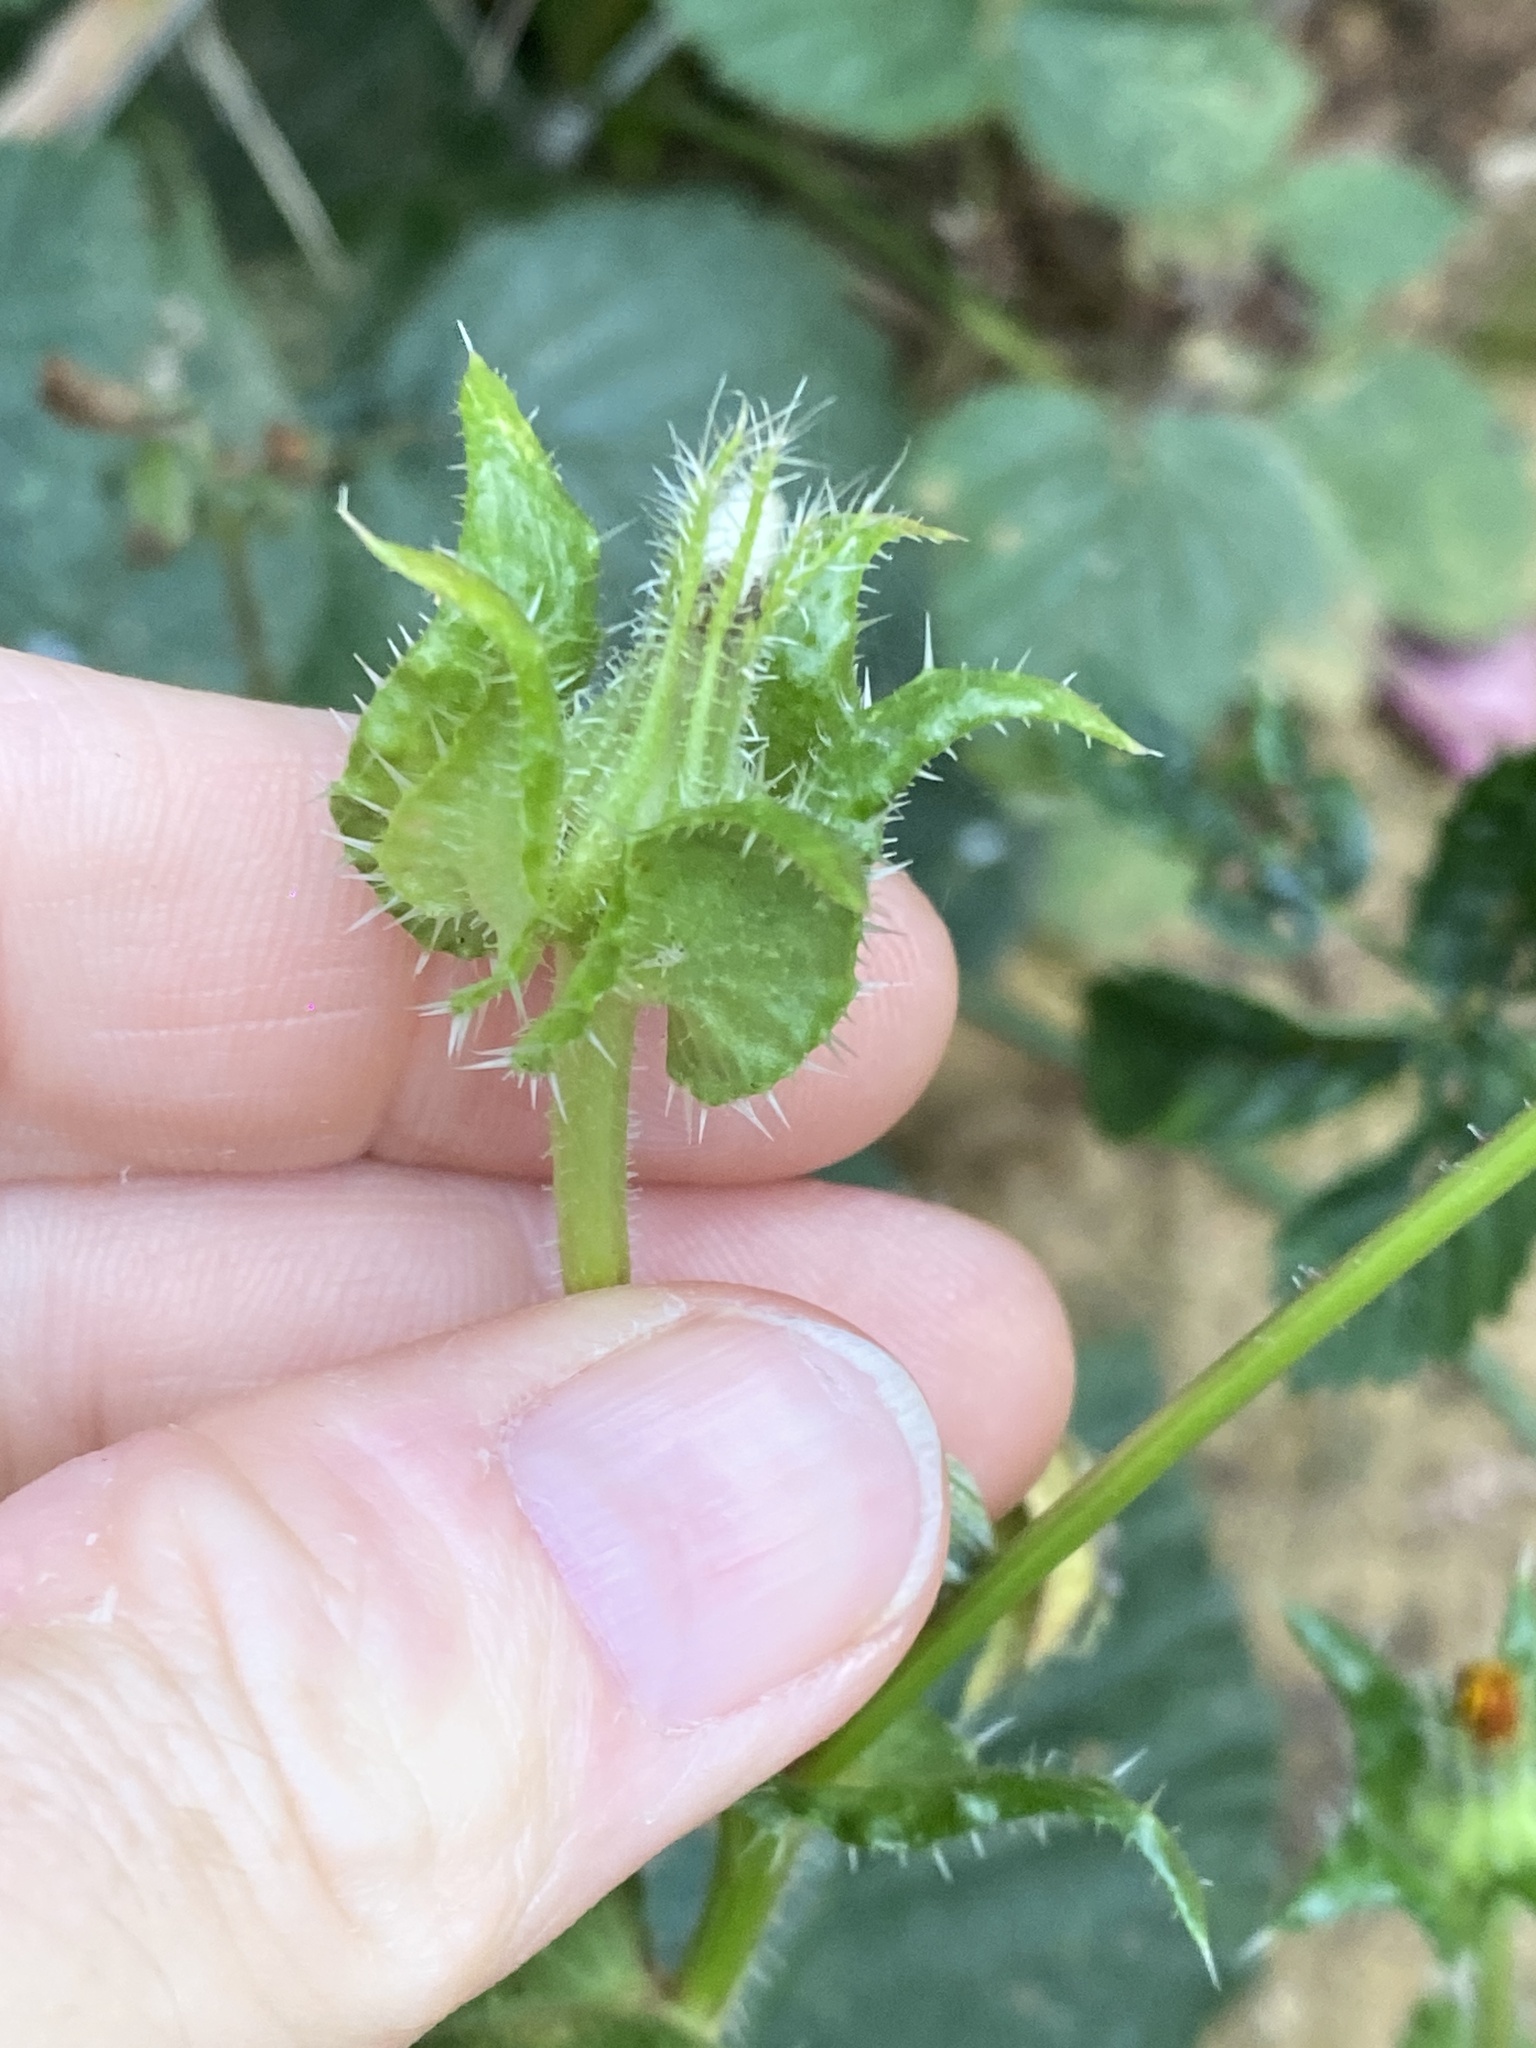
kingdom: Plantae
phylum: Tracheophyta
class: Magnoliopsida
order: Asterales
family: Asteraceae
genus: Helminthotheca
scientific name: Helminthotheca echioides
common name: Ox-tongue
